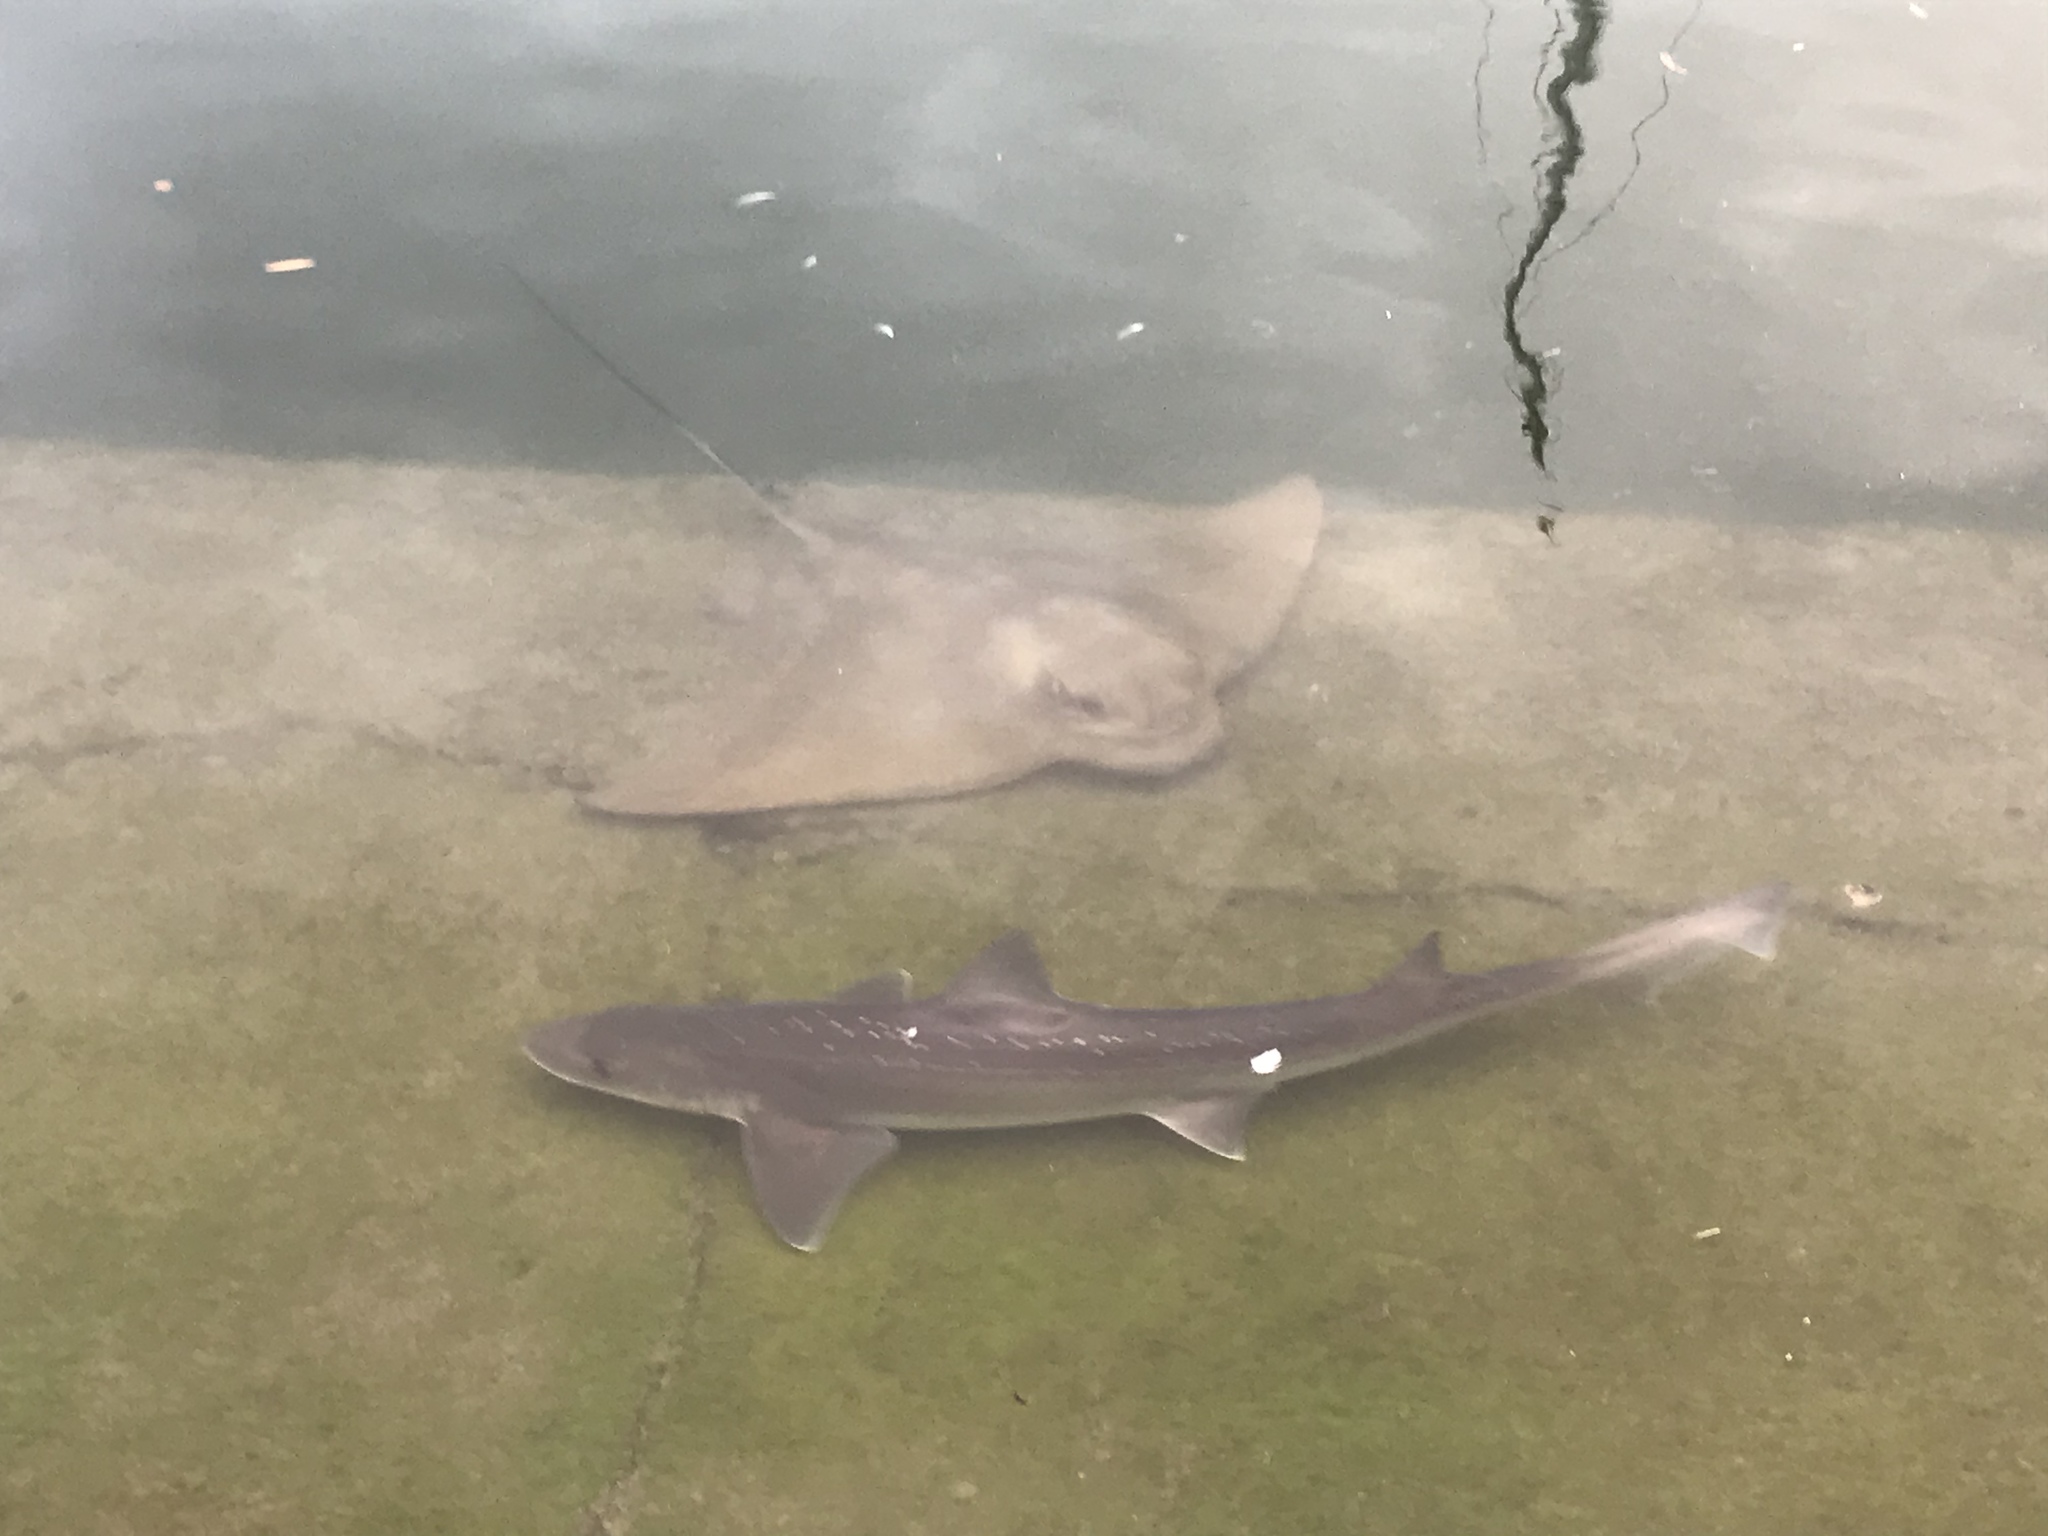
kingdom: Animalia
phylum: Chordata
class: Elasmobranchii
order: Carcharhiniformes
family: Triakidae
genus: Mustelus
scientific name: Mustelus lenticulatus
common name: Gummy shark
